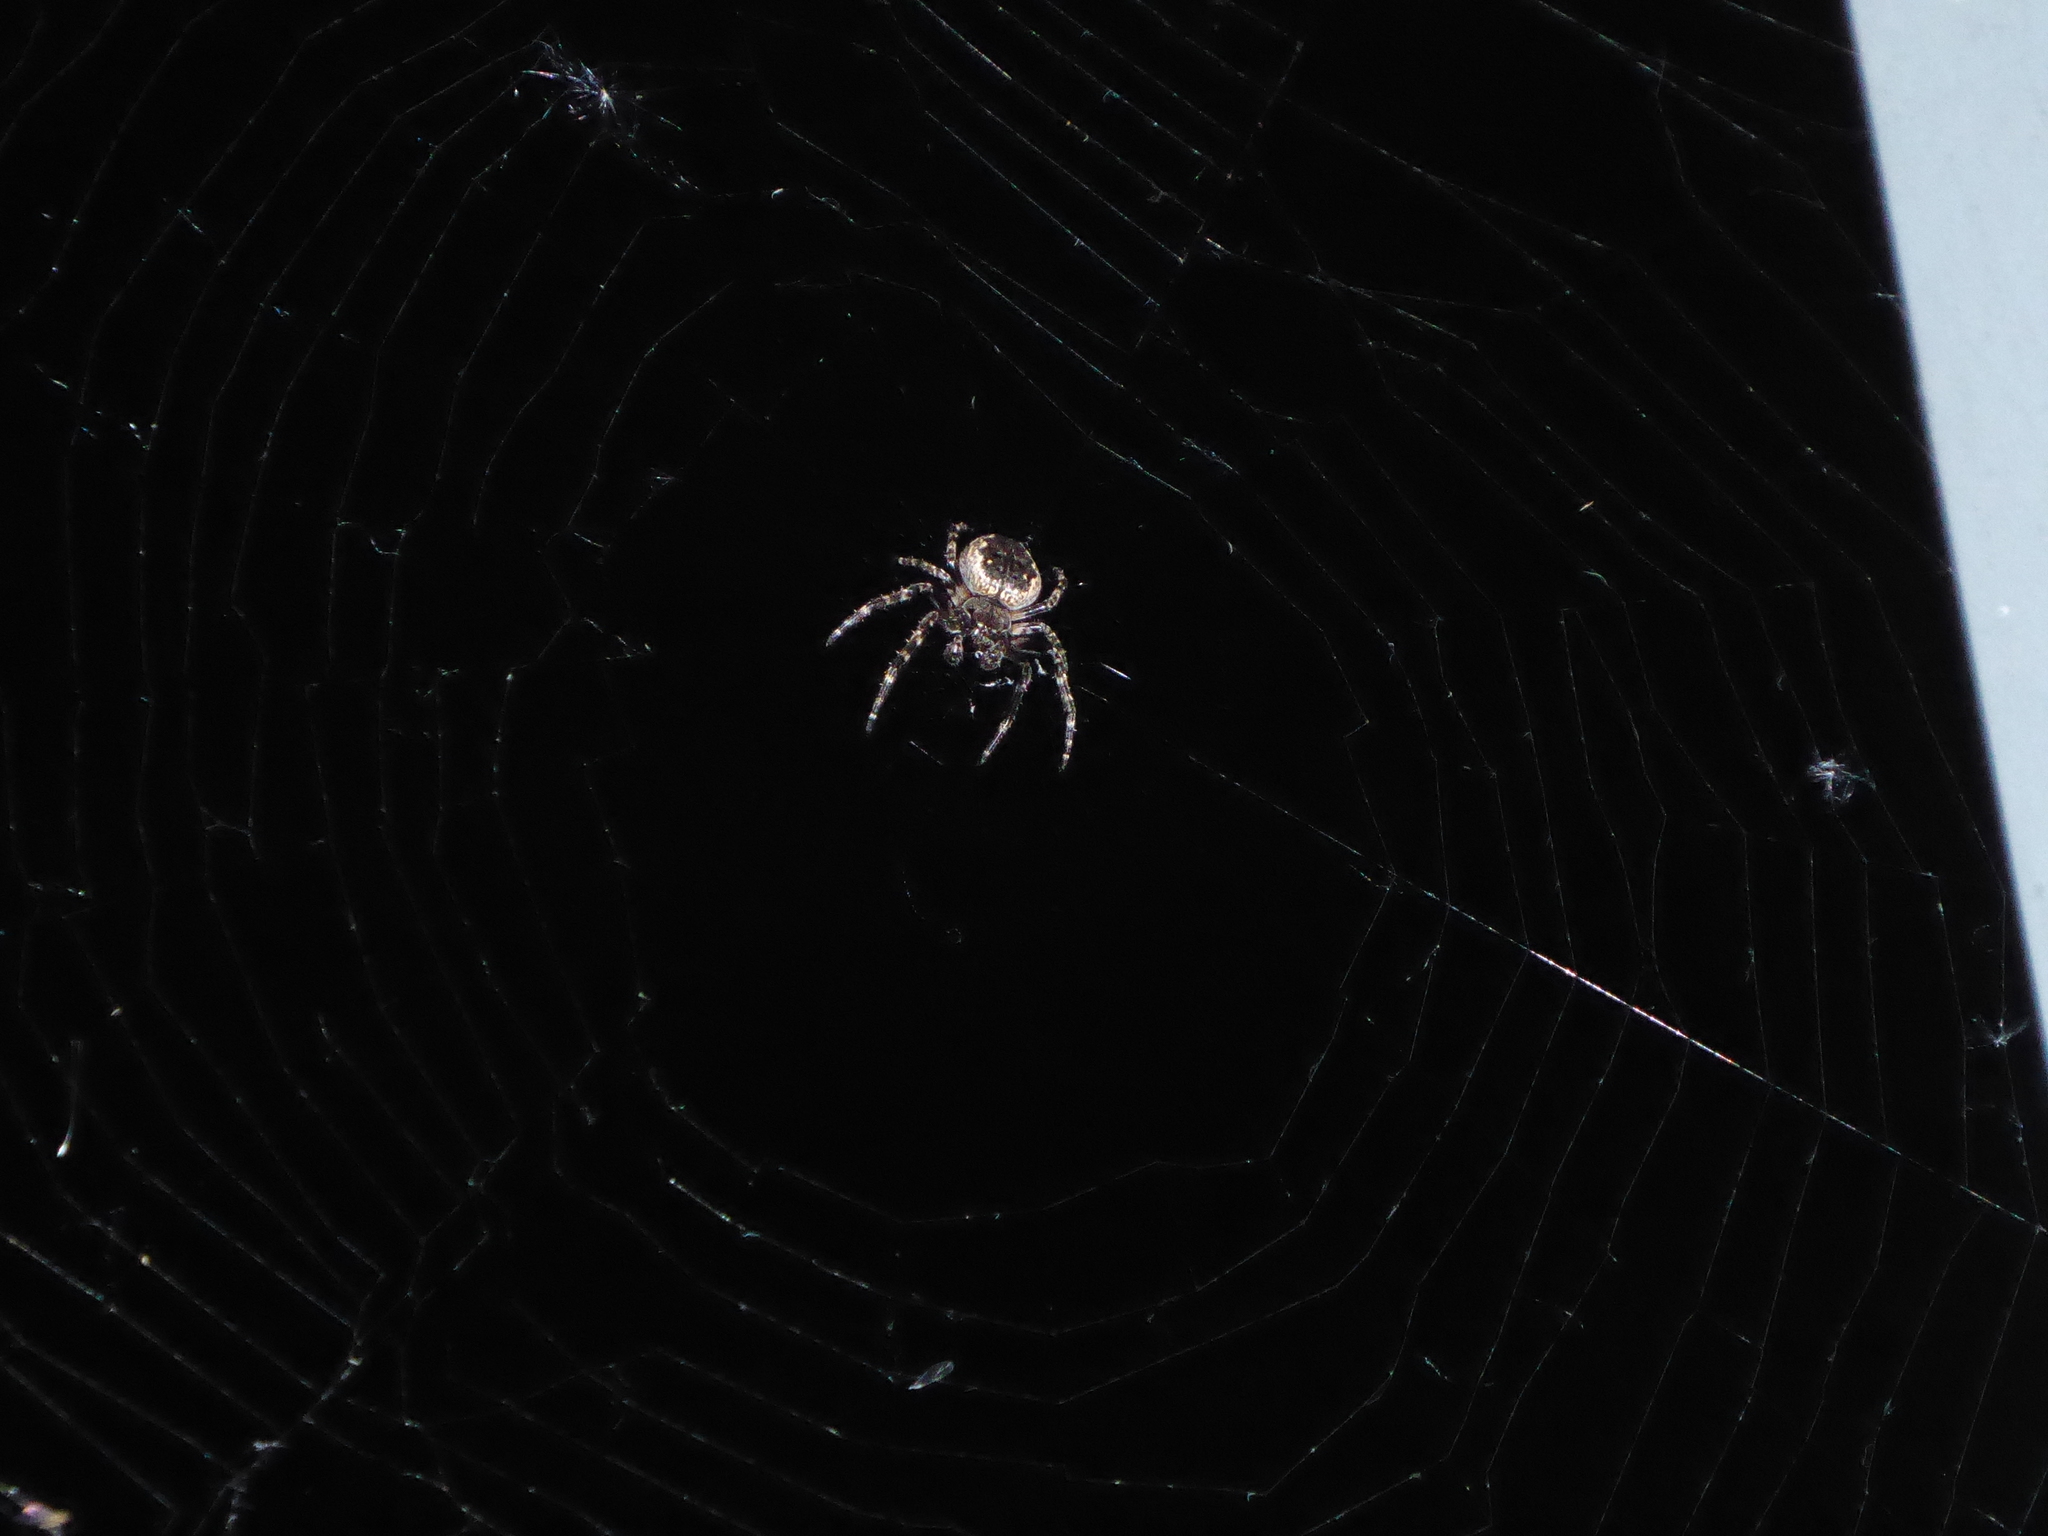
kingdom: Animalia
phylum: Arthropoda
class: Arachnida
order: Araneae
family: Araneidae
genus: Nuctenea
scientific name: Nuctenea umbratica
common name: Toad spider
